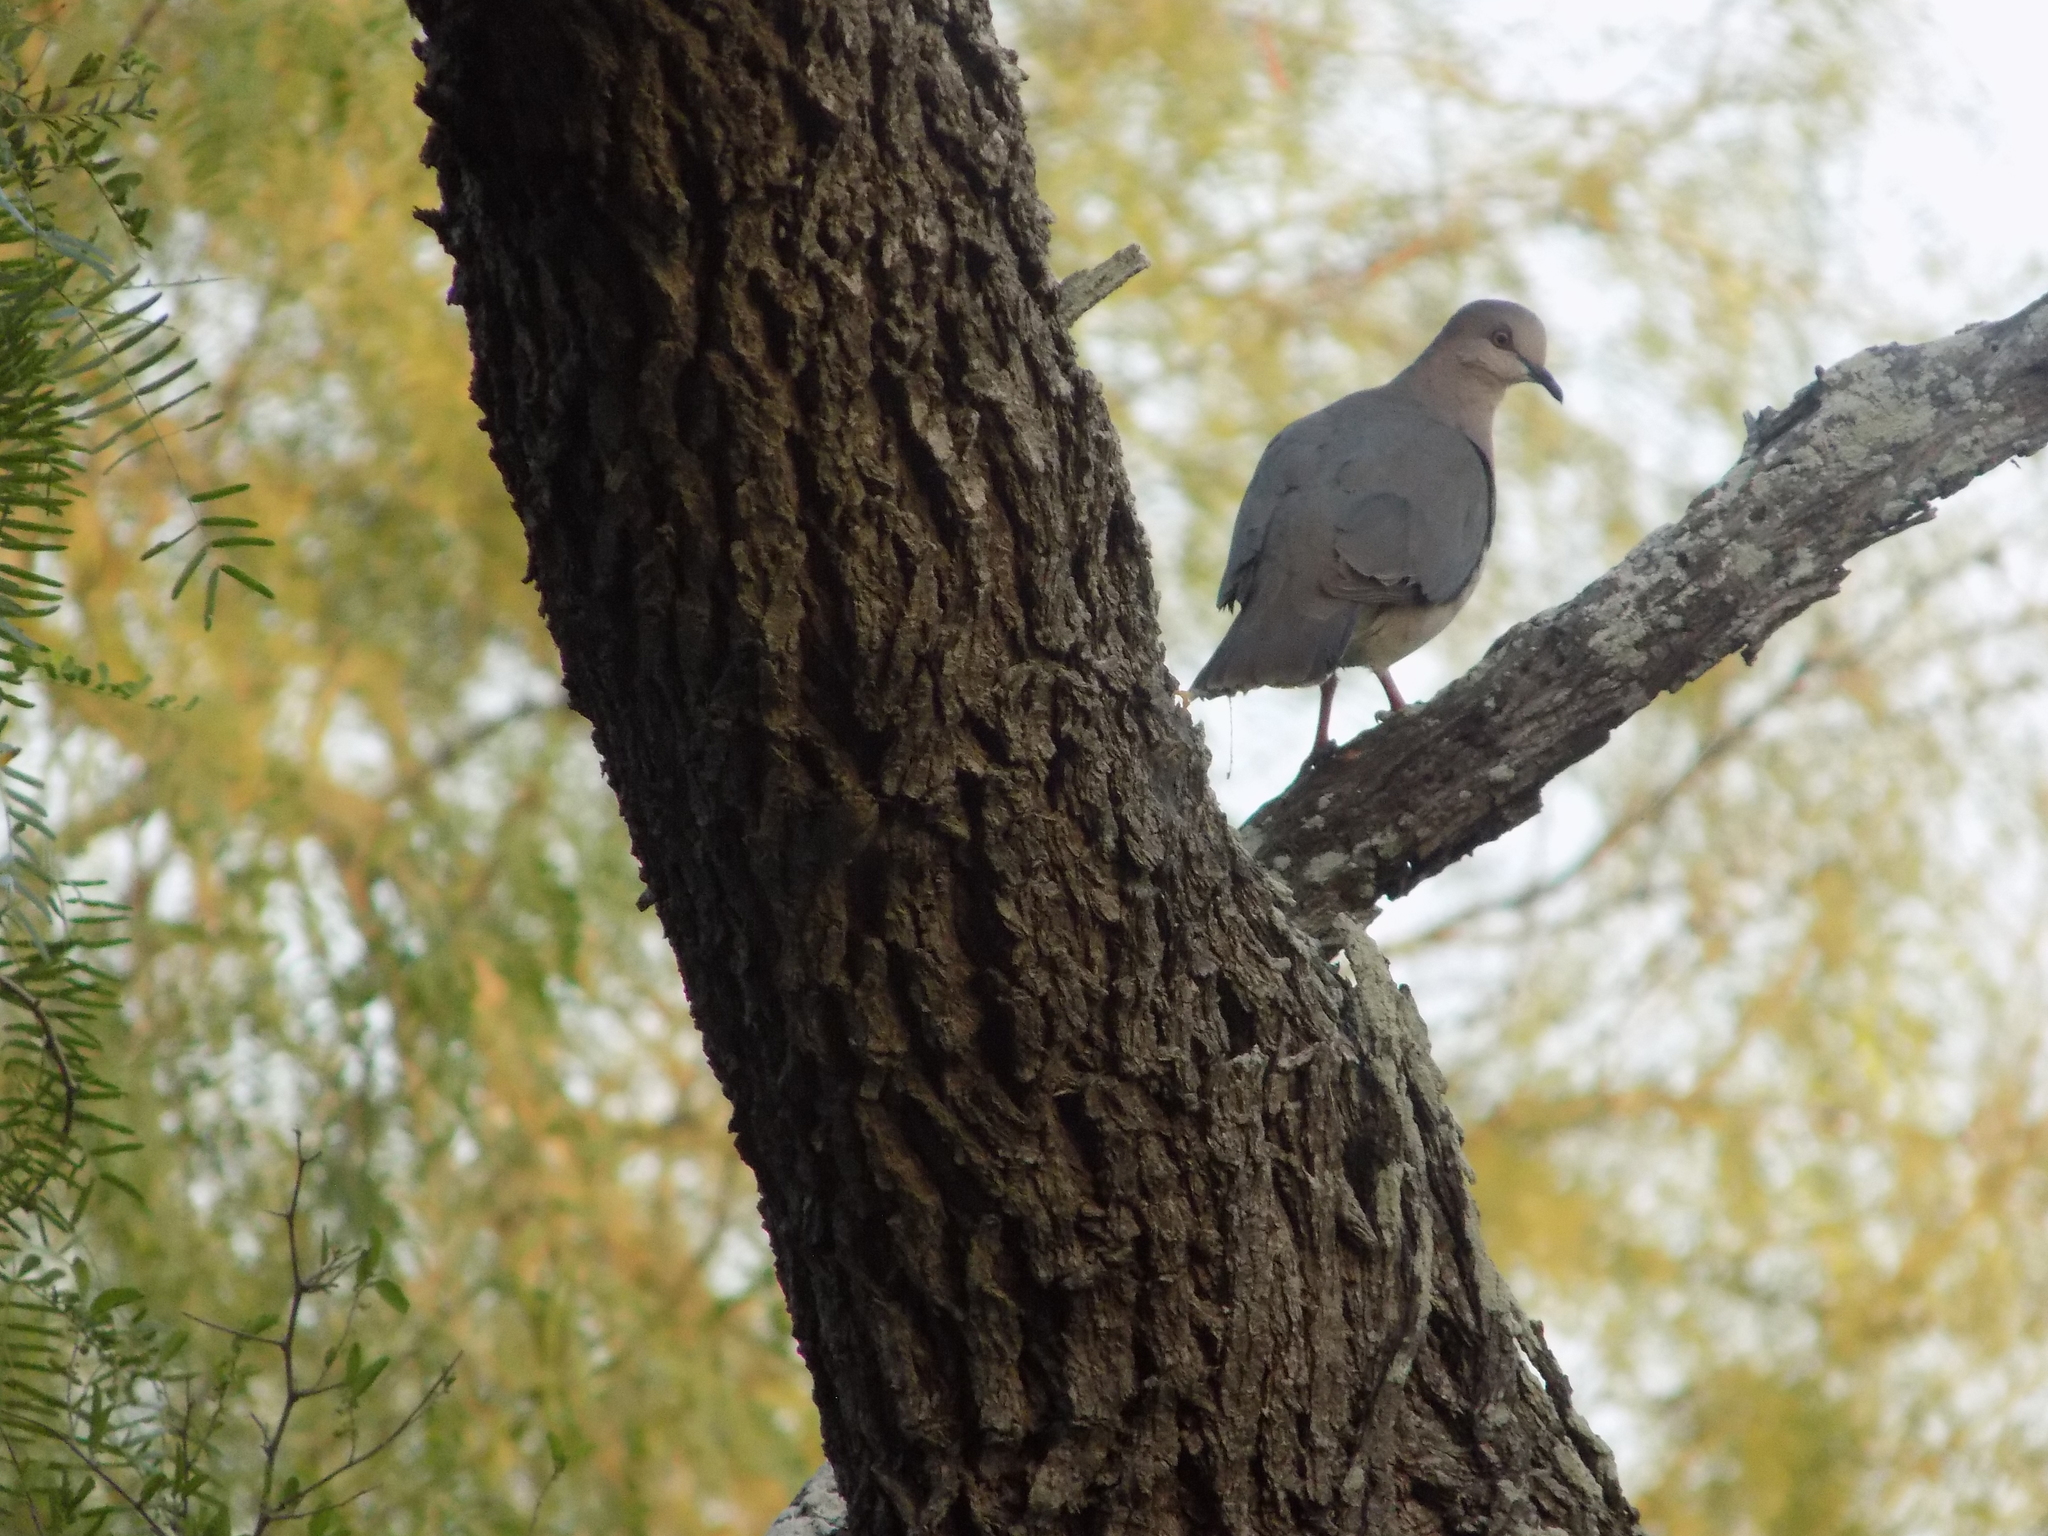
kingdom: Animalia
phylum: Chordata
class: Aves
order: Columbiformes
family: Columbidae
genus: Leptotila
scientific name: Leptotila verreauxi
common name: White-tipped dove
